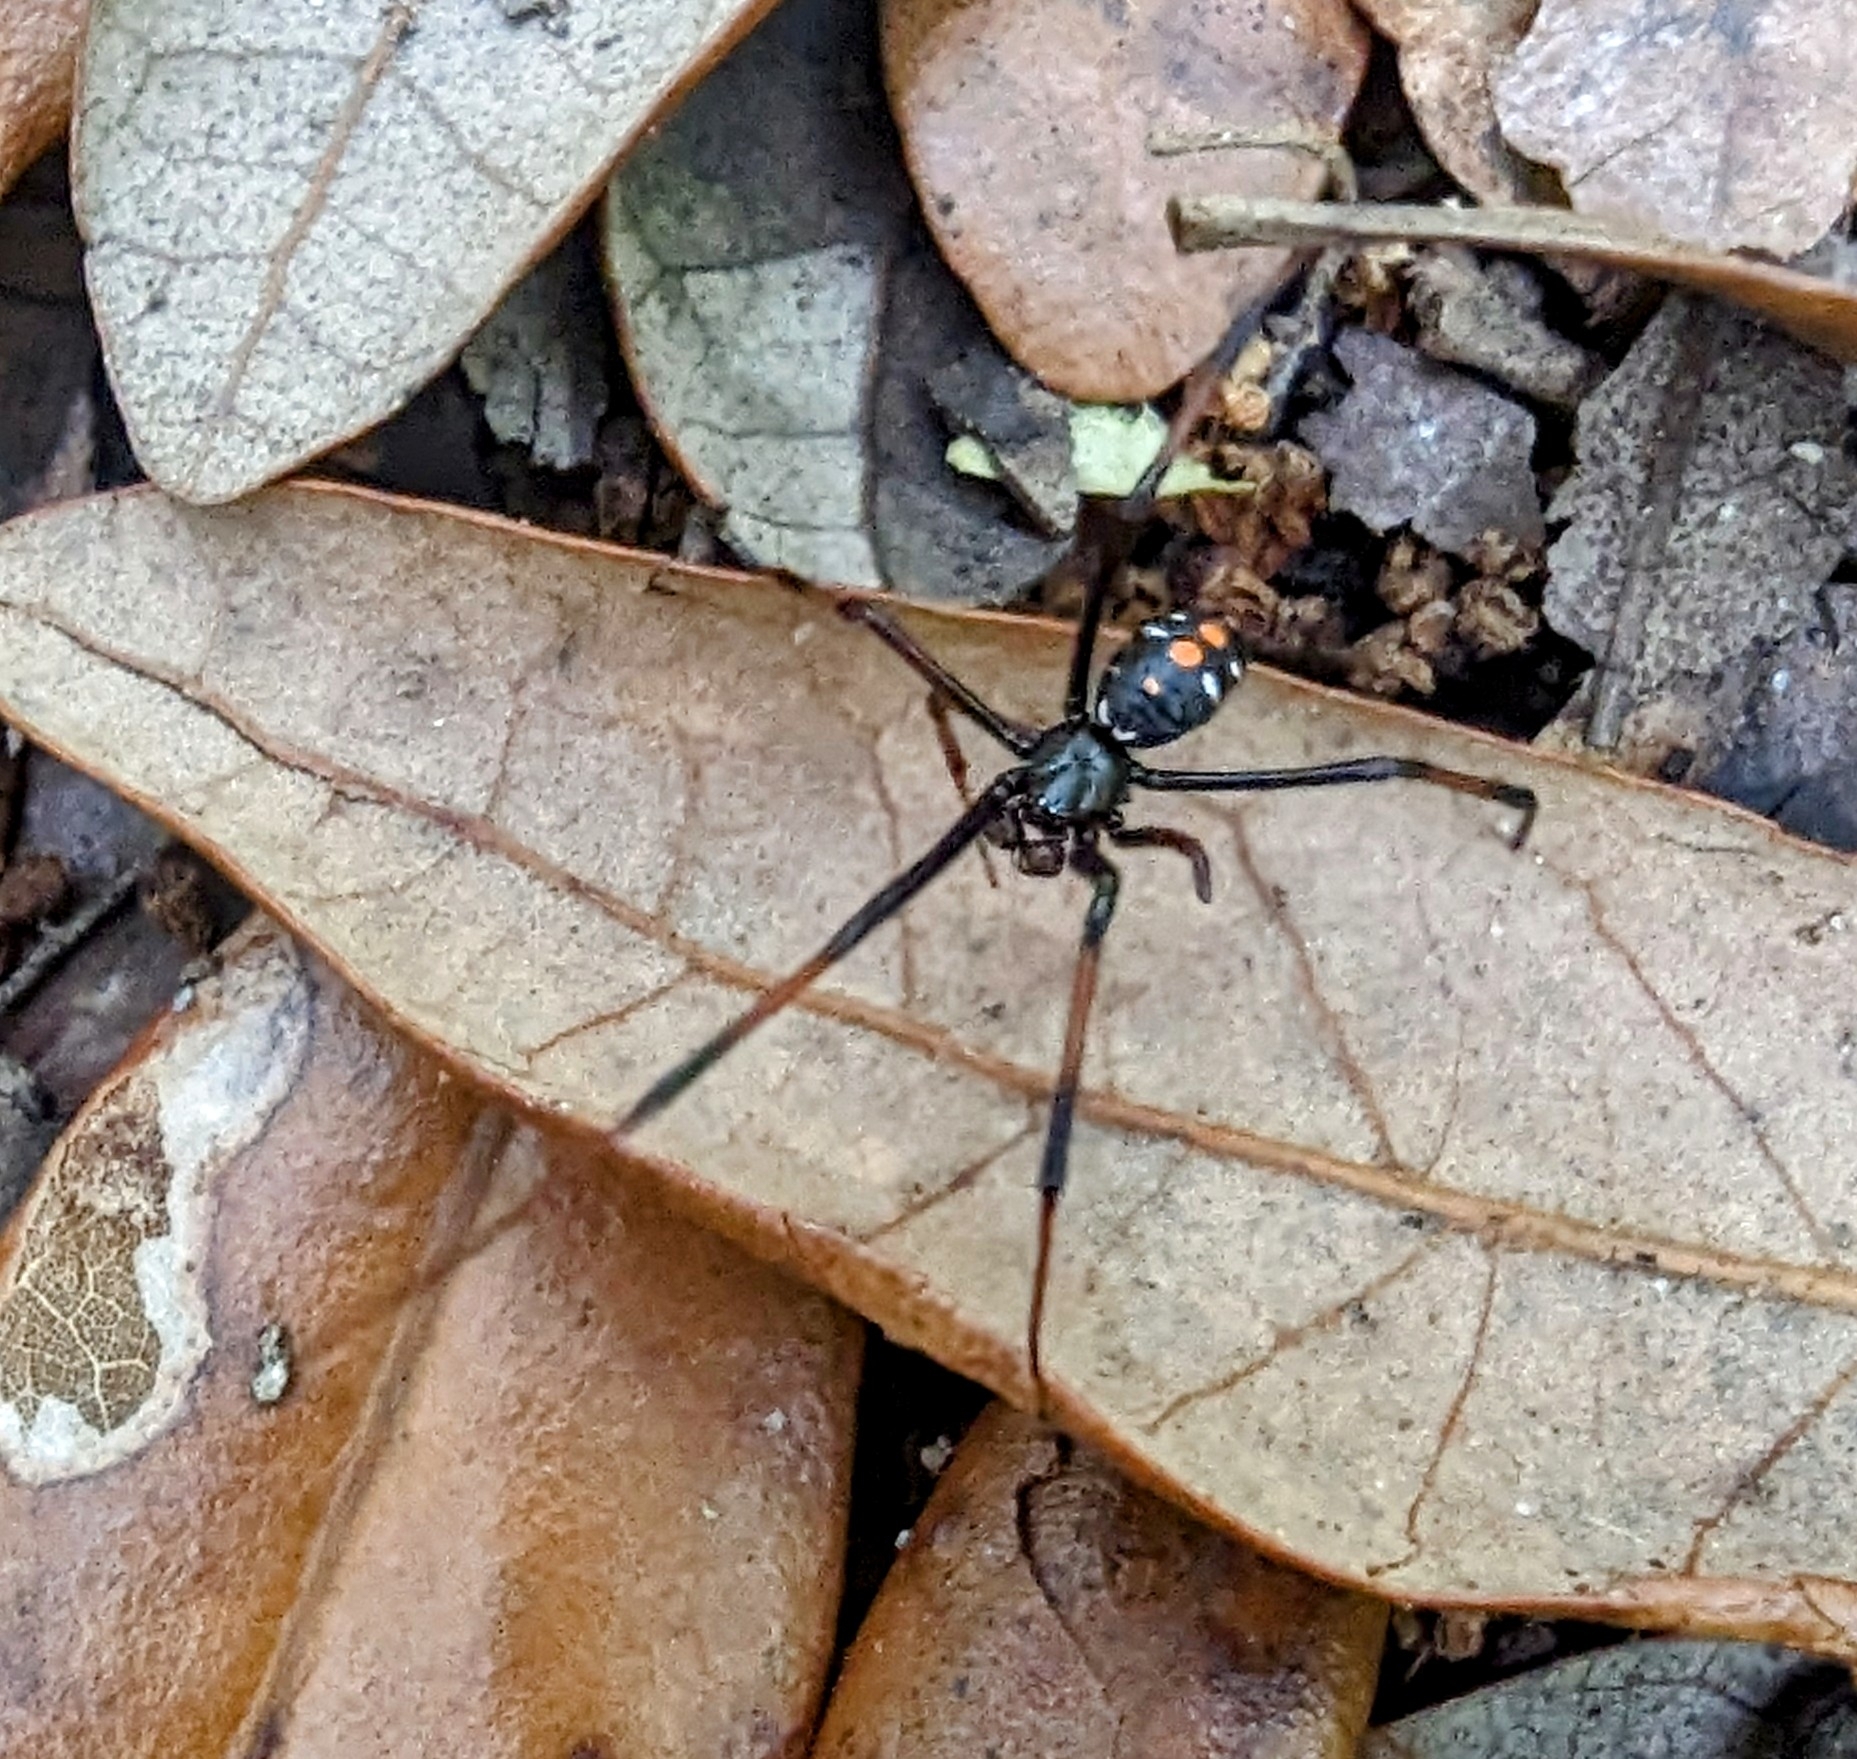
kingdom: Animalia
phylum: Arthropoda
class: Arachnida
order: Araneae
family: Theridiidae
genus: Latrodectus
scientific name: Latrodectus variolus
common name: Northern black widow
